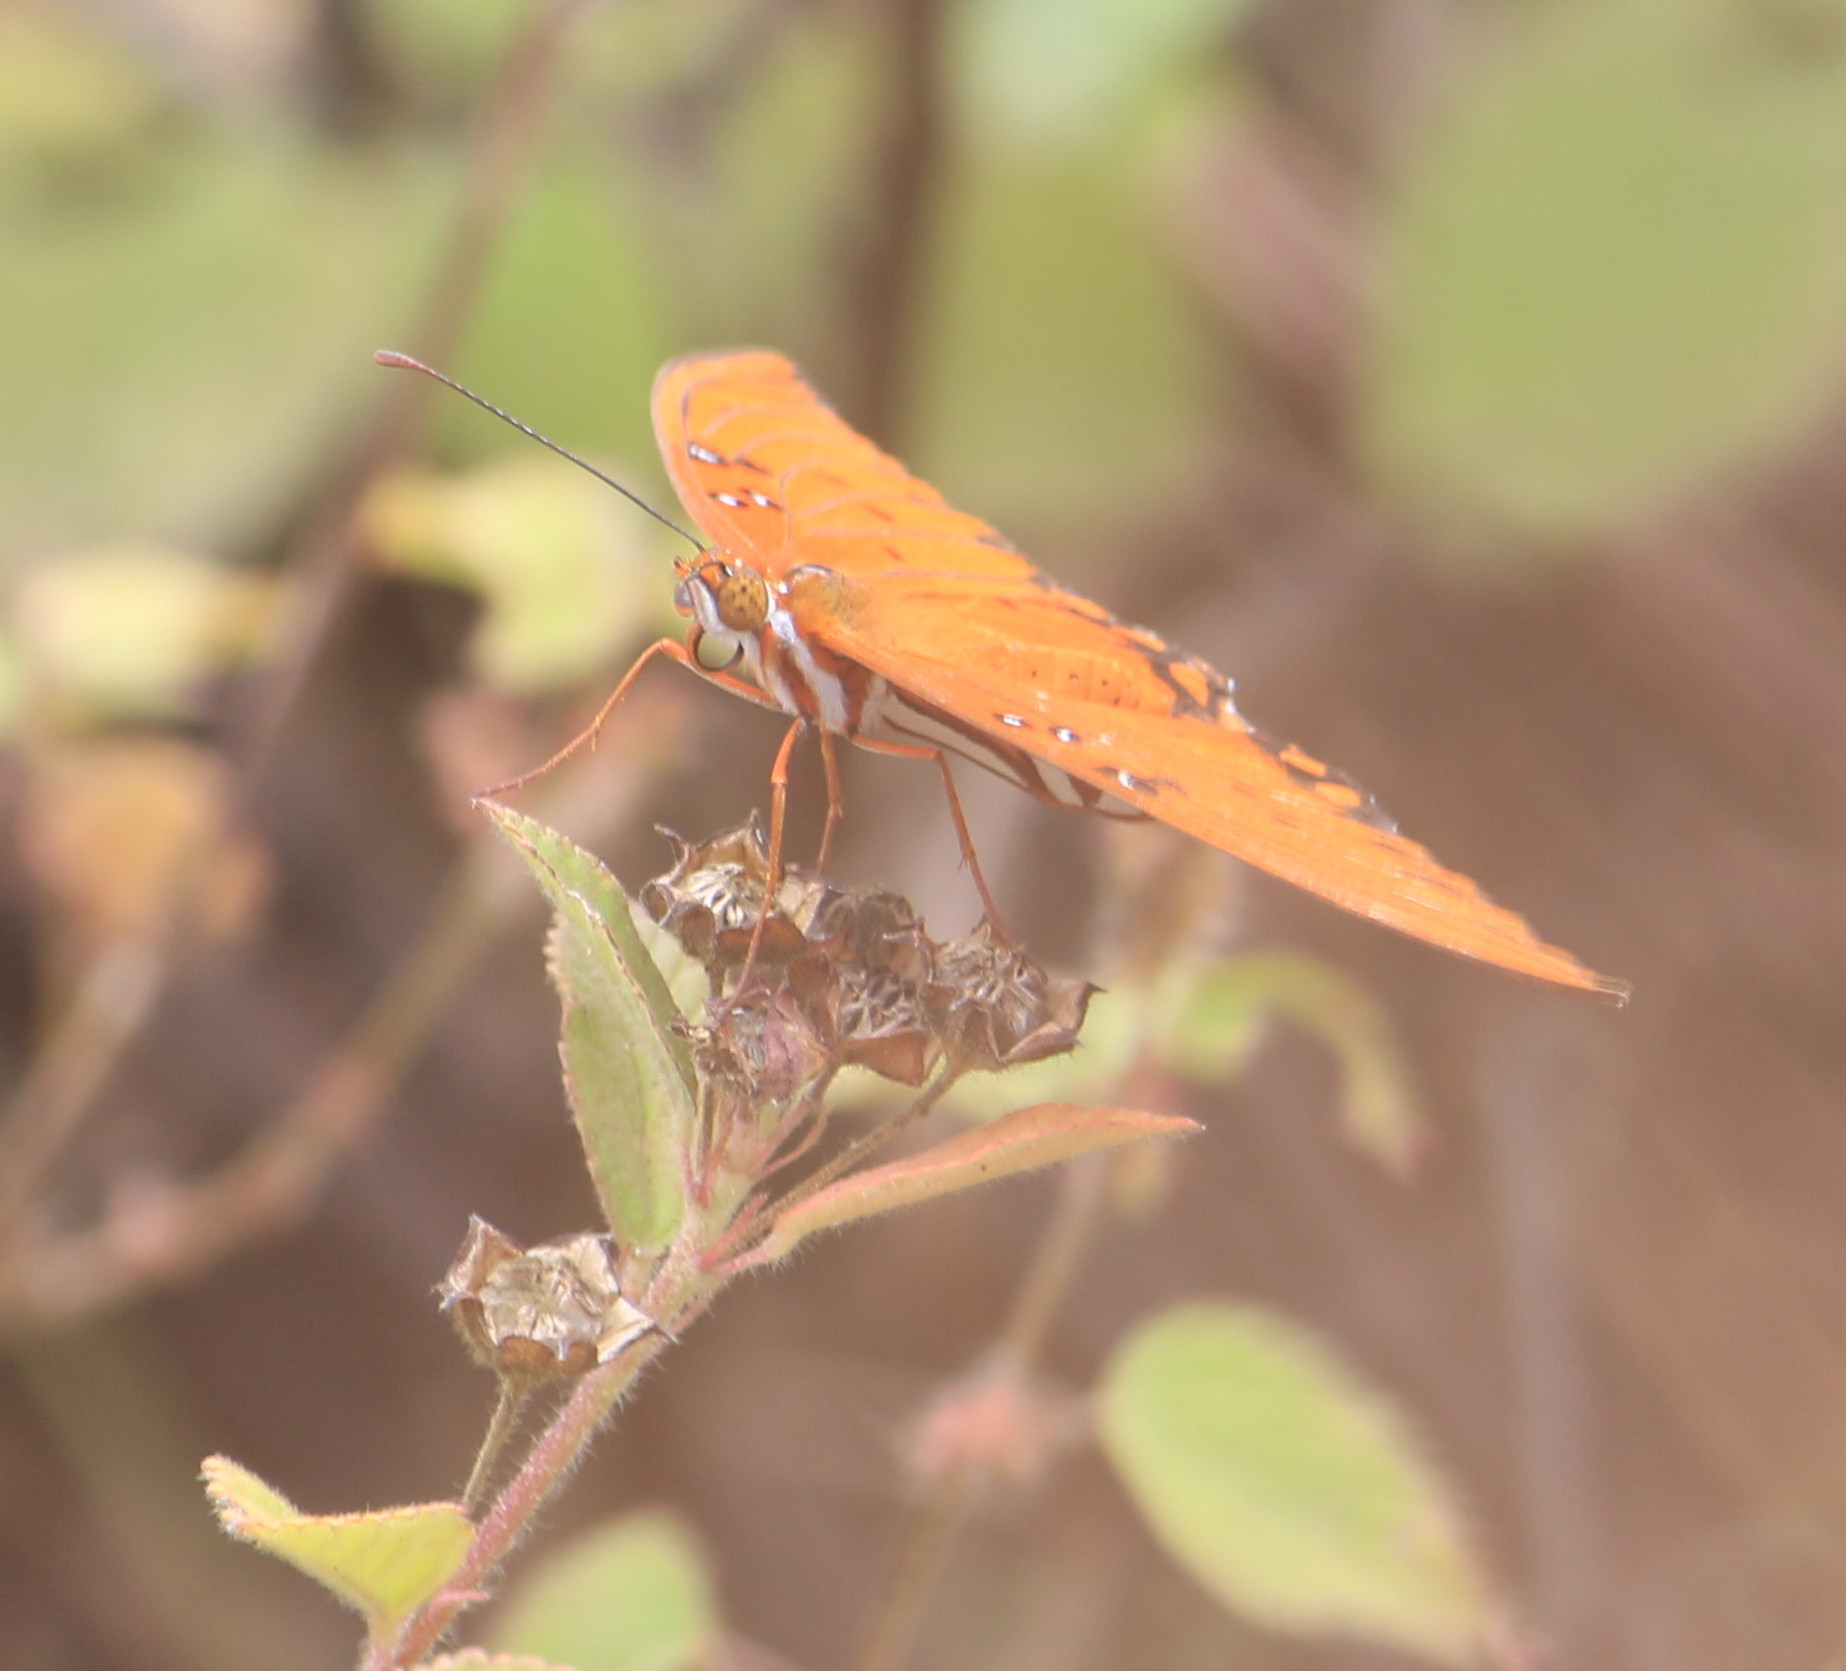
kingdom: Animalia
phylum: Arthropoda
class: Insecta
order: Lepidoptera
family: Nymphalidae
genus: Dione
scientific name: Dione vanillae
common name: Gulf fritillary
